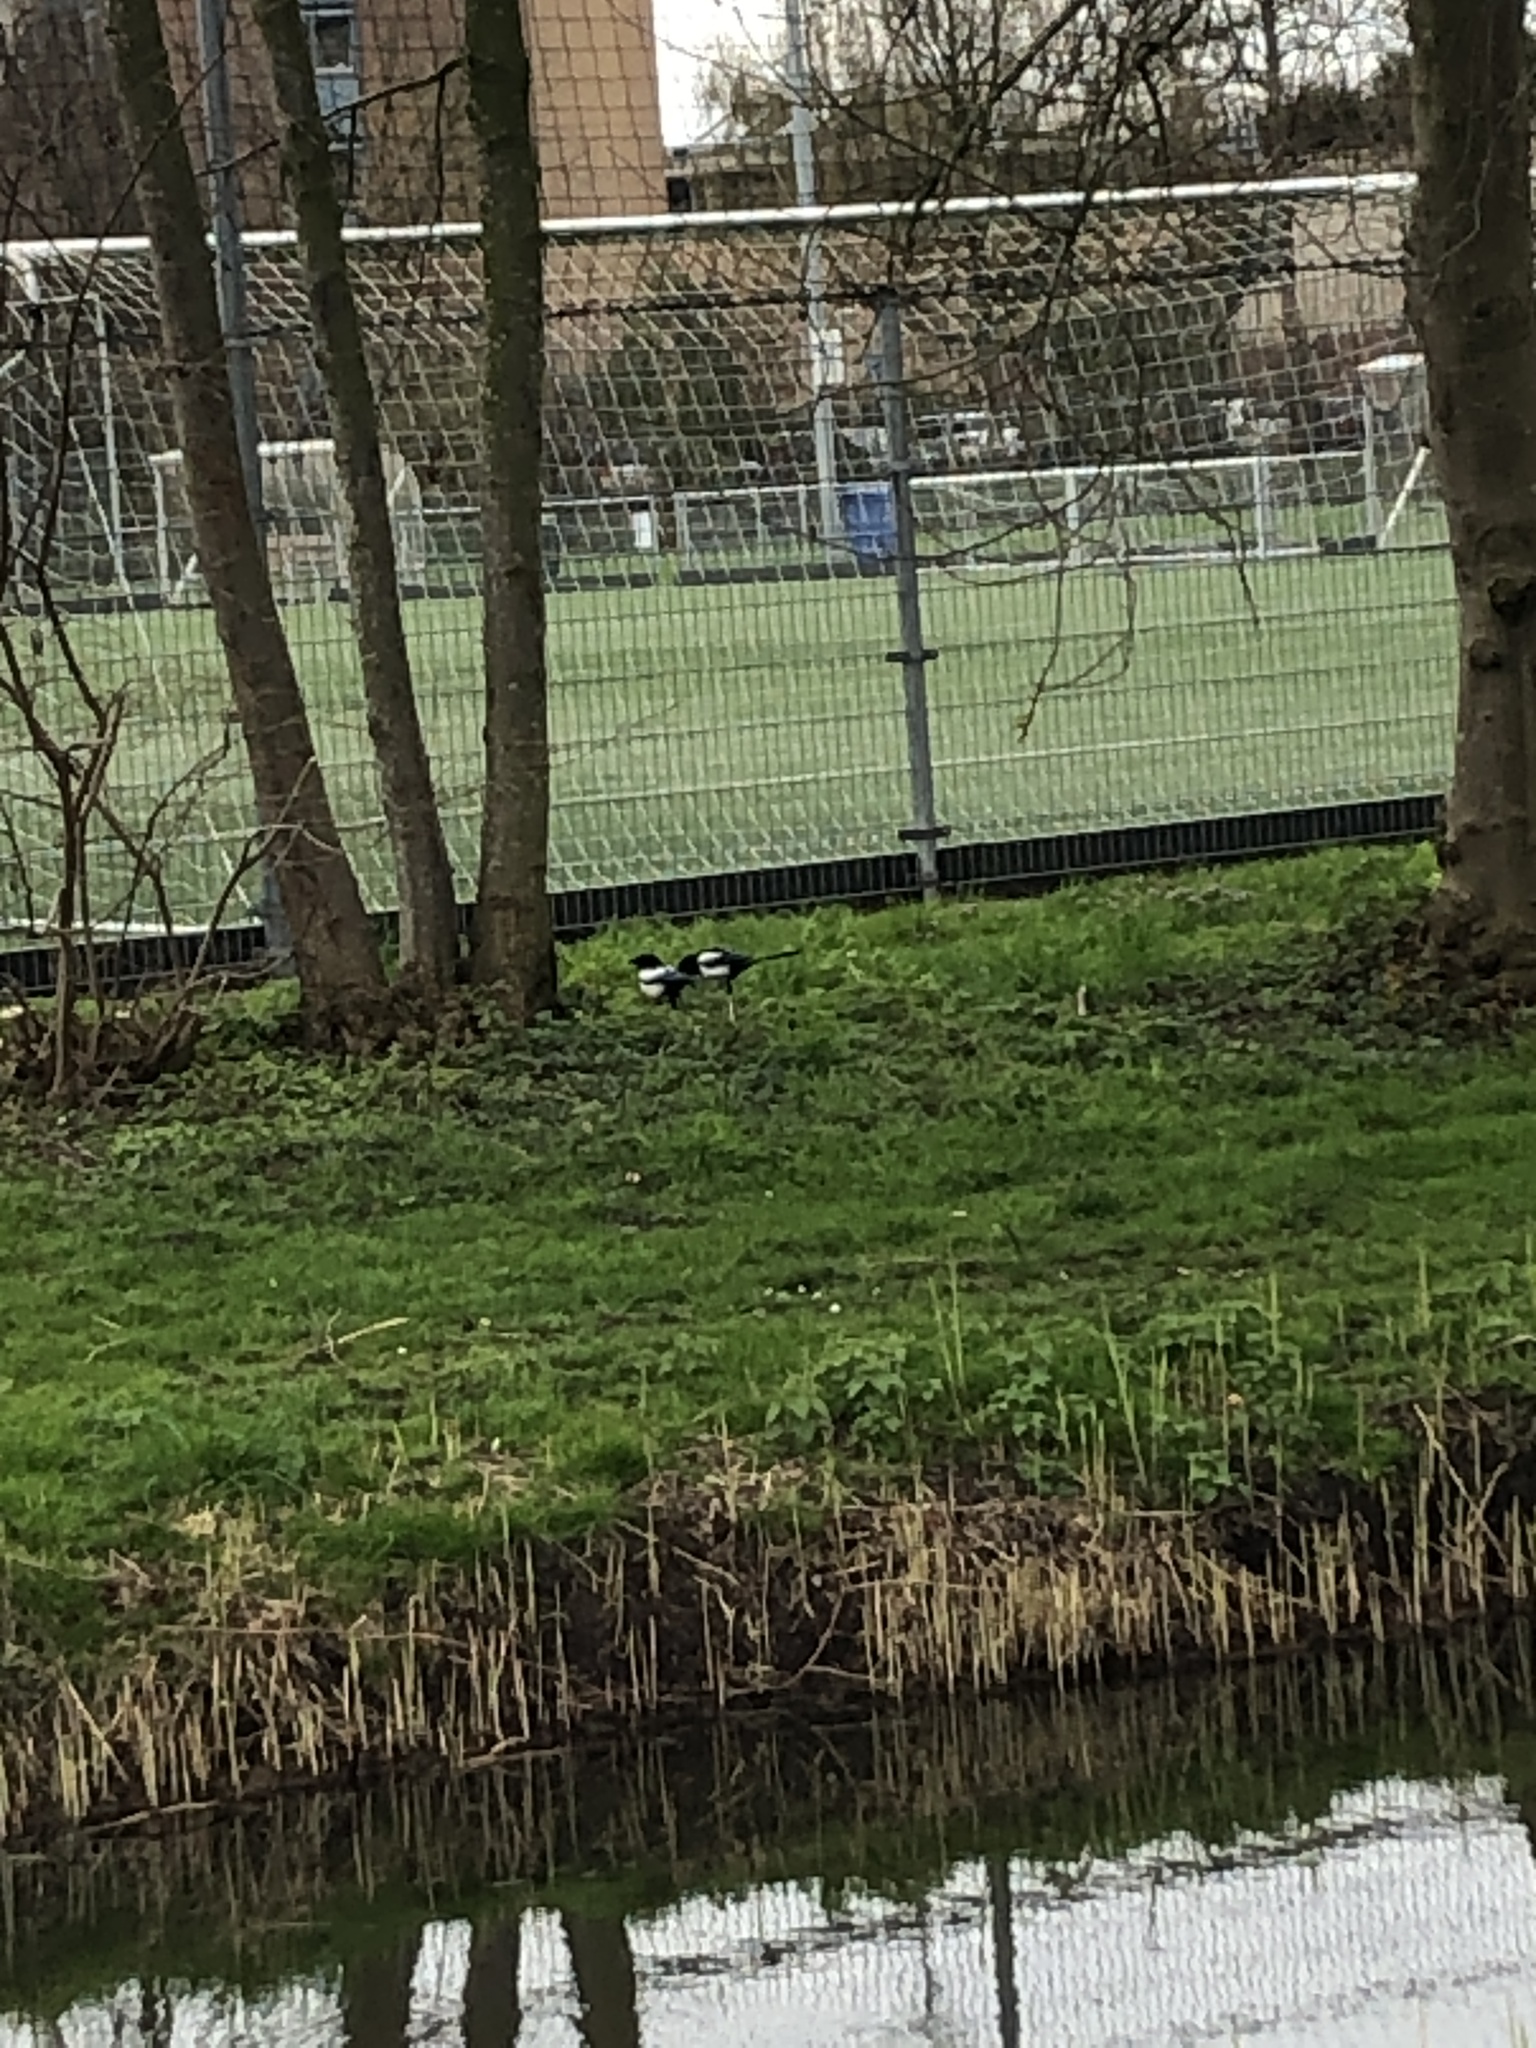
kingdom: Animalia
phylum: Chordata
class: Aves
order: Passeriformes
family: Corvidae
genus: Pica
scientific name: Pica pica
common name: Eurasian magpie
